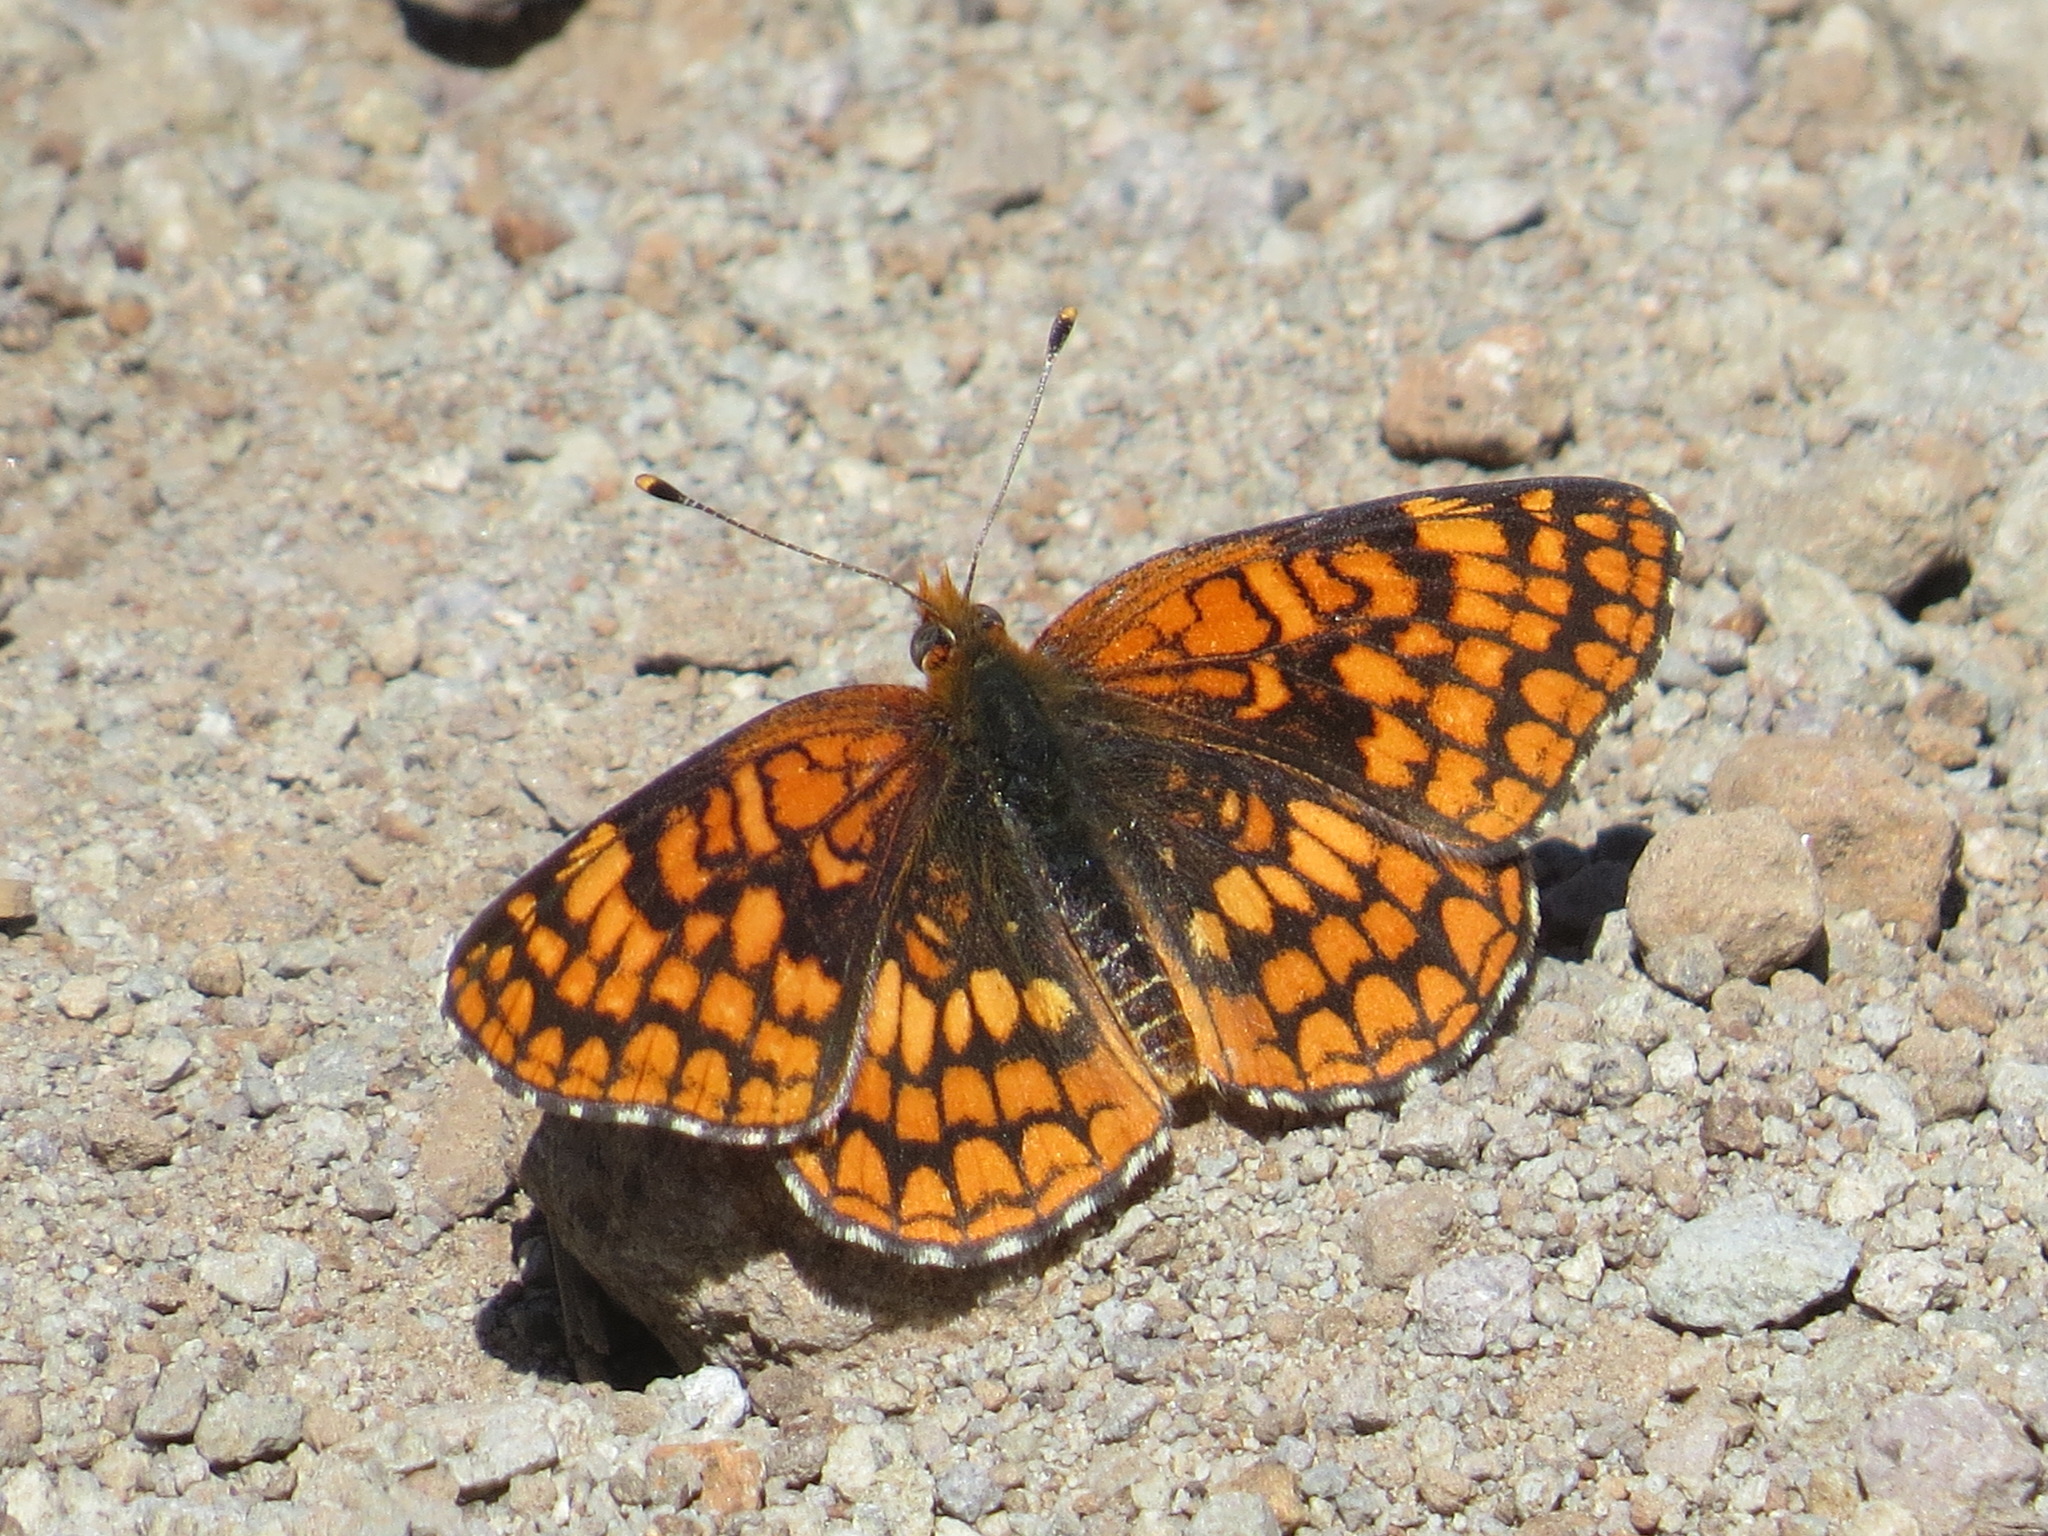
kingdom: Animalia
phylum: Arthropoda
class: Insecta
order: Lepidoptera
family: Nymphalidae
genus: Chlosyne
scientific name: Chlosyne palla
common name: Northern checkerspot
